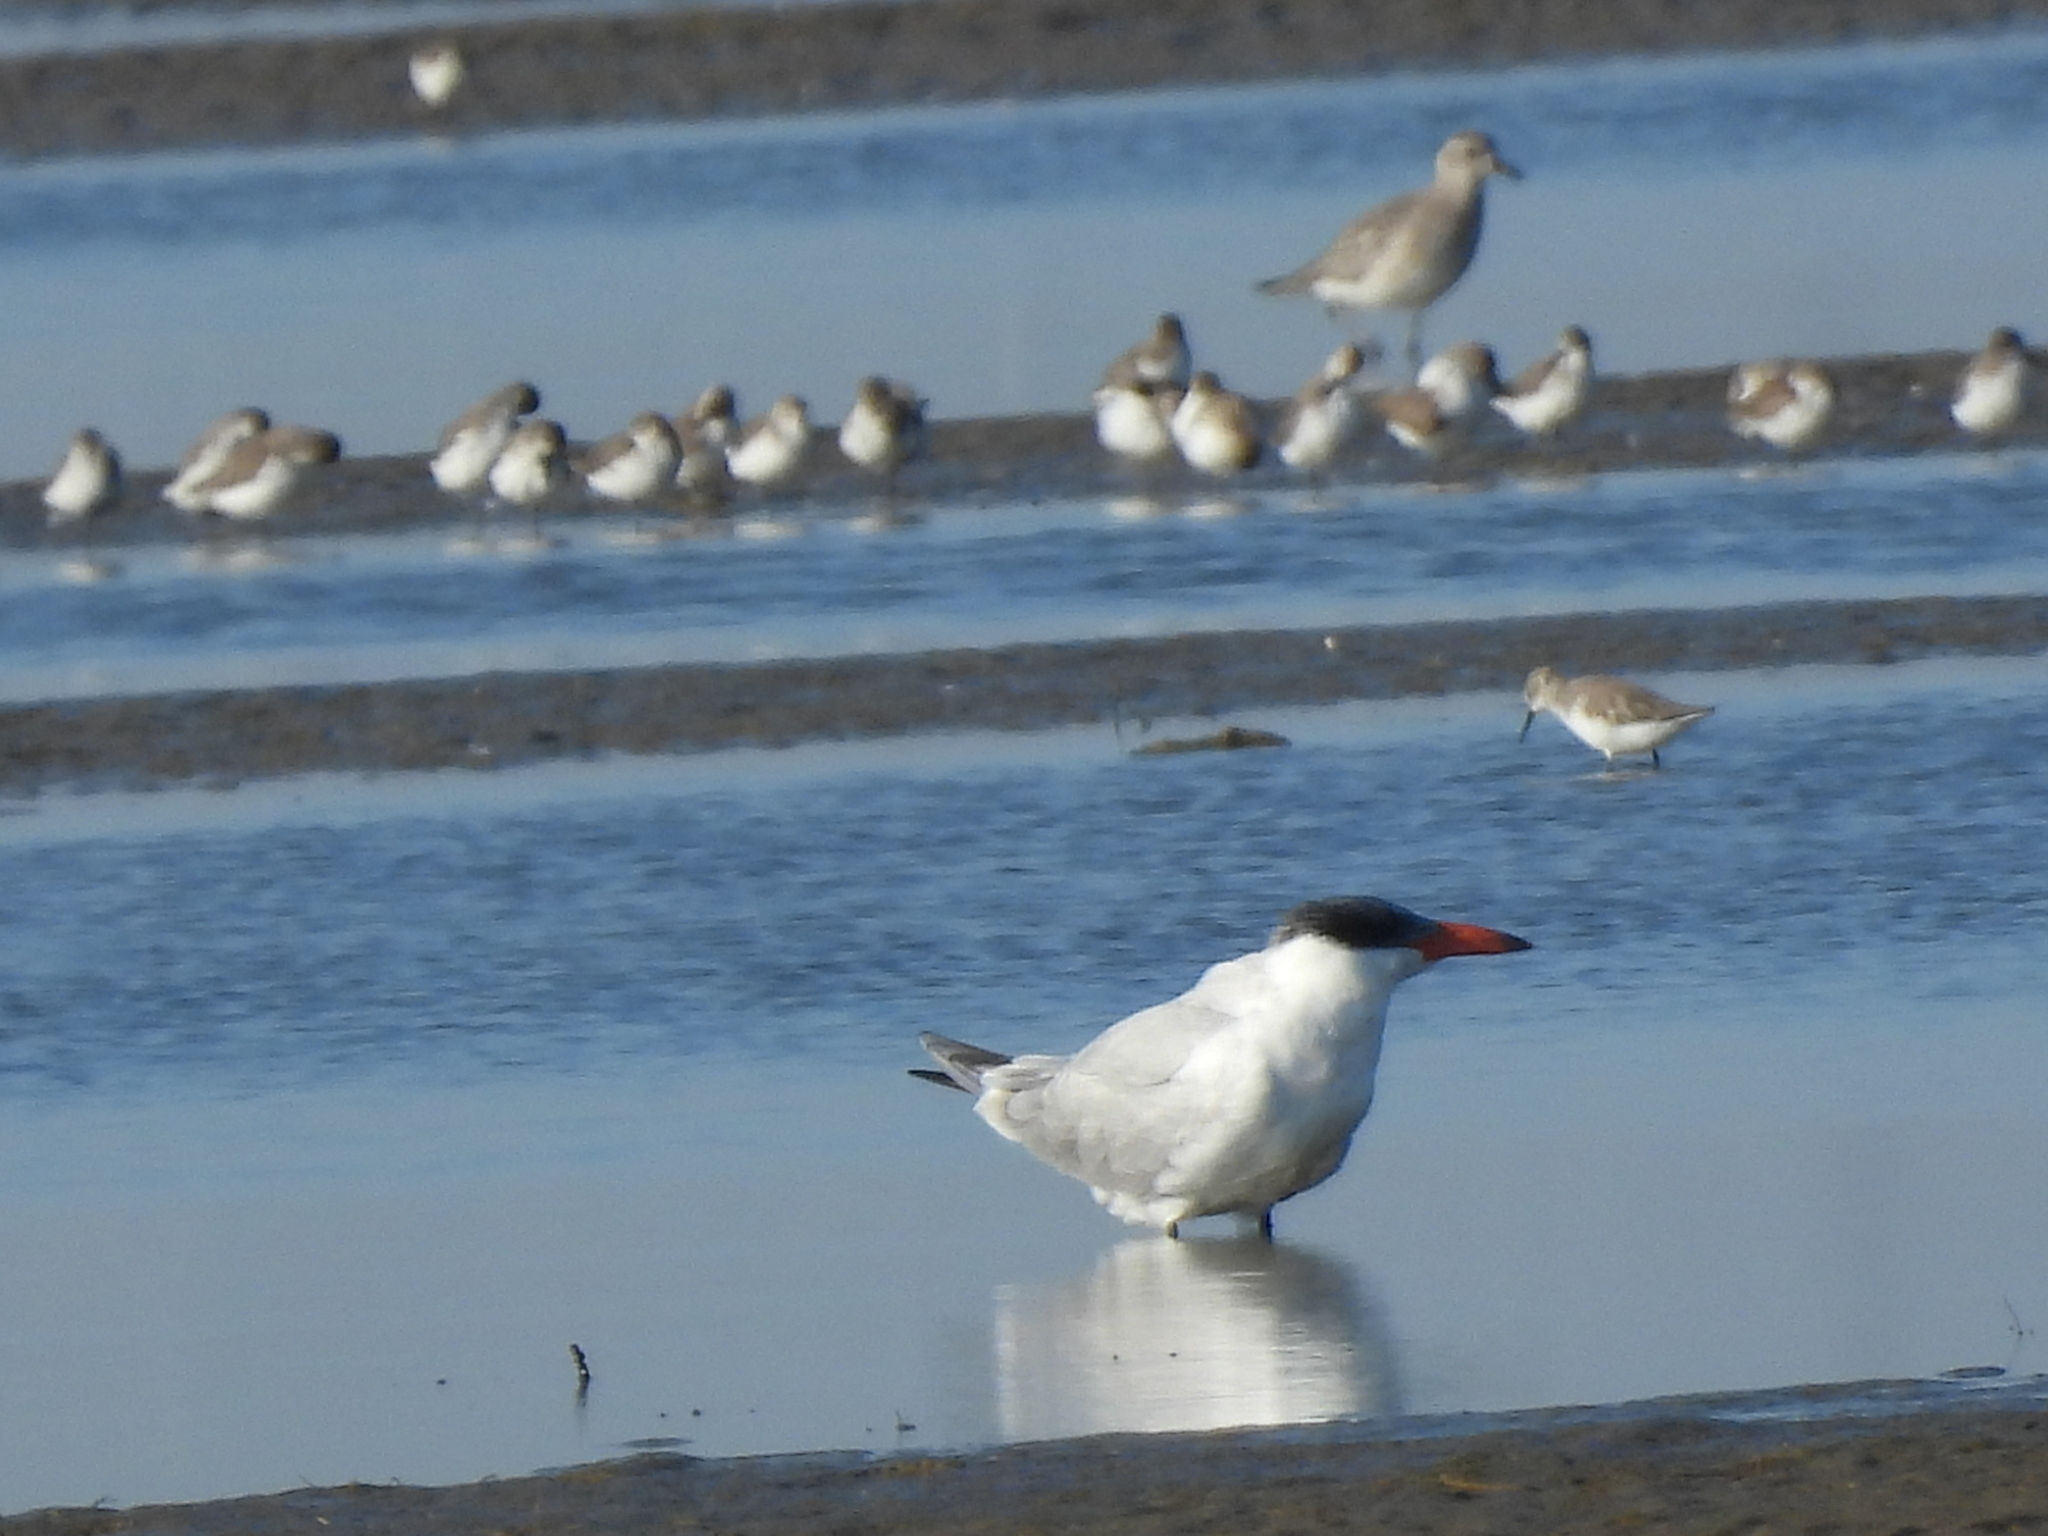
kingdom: Animalia
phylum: Chordata
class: Aves
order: Charadriiformes
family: Laridae
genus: Hydroprogne
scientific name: Hydroprogne caspia
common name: Caspian tern
